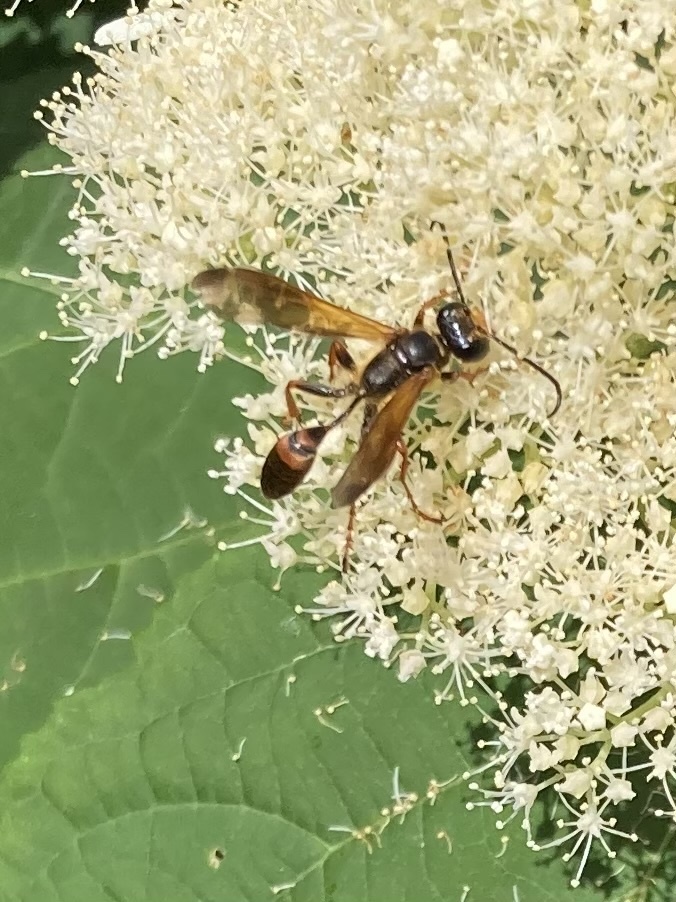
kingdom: Animalia
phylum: Arthropoda
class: Insecta
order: Hymenoptera
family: Sphecidae
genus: Isodontia
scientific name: Isodontia elegans
